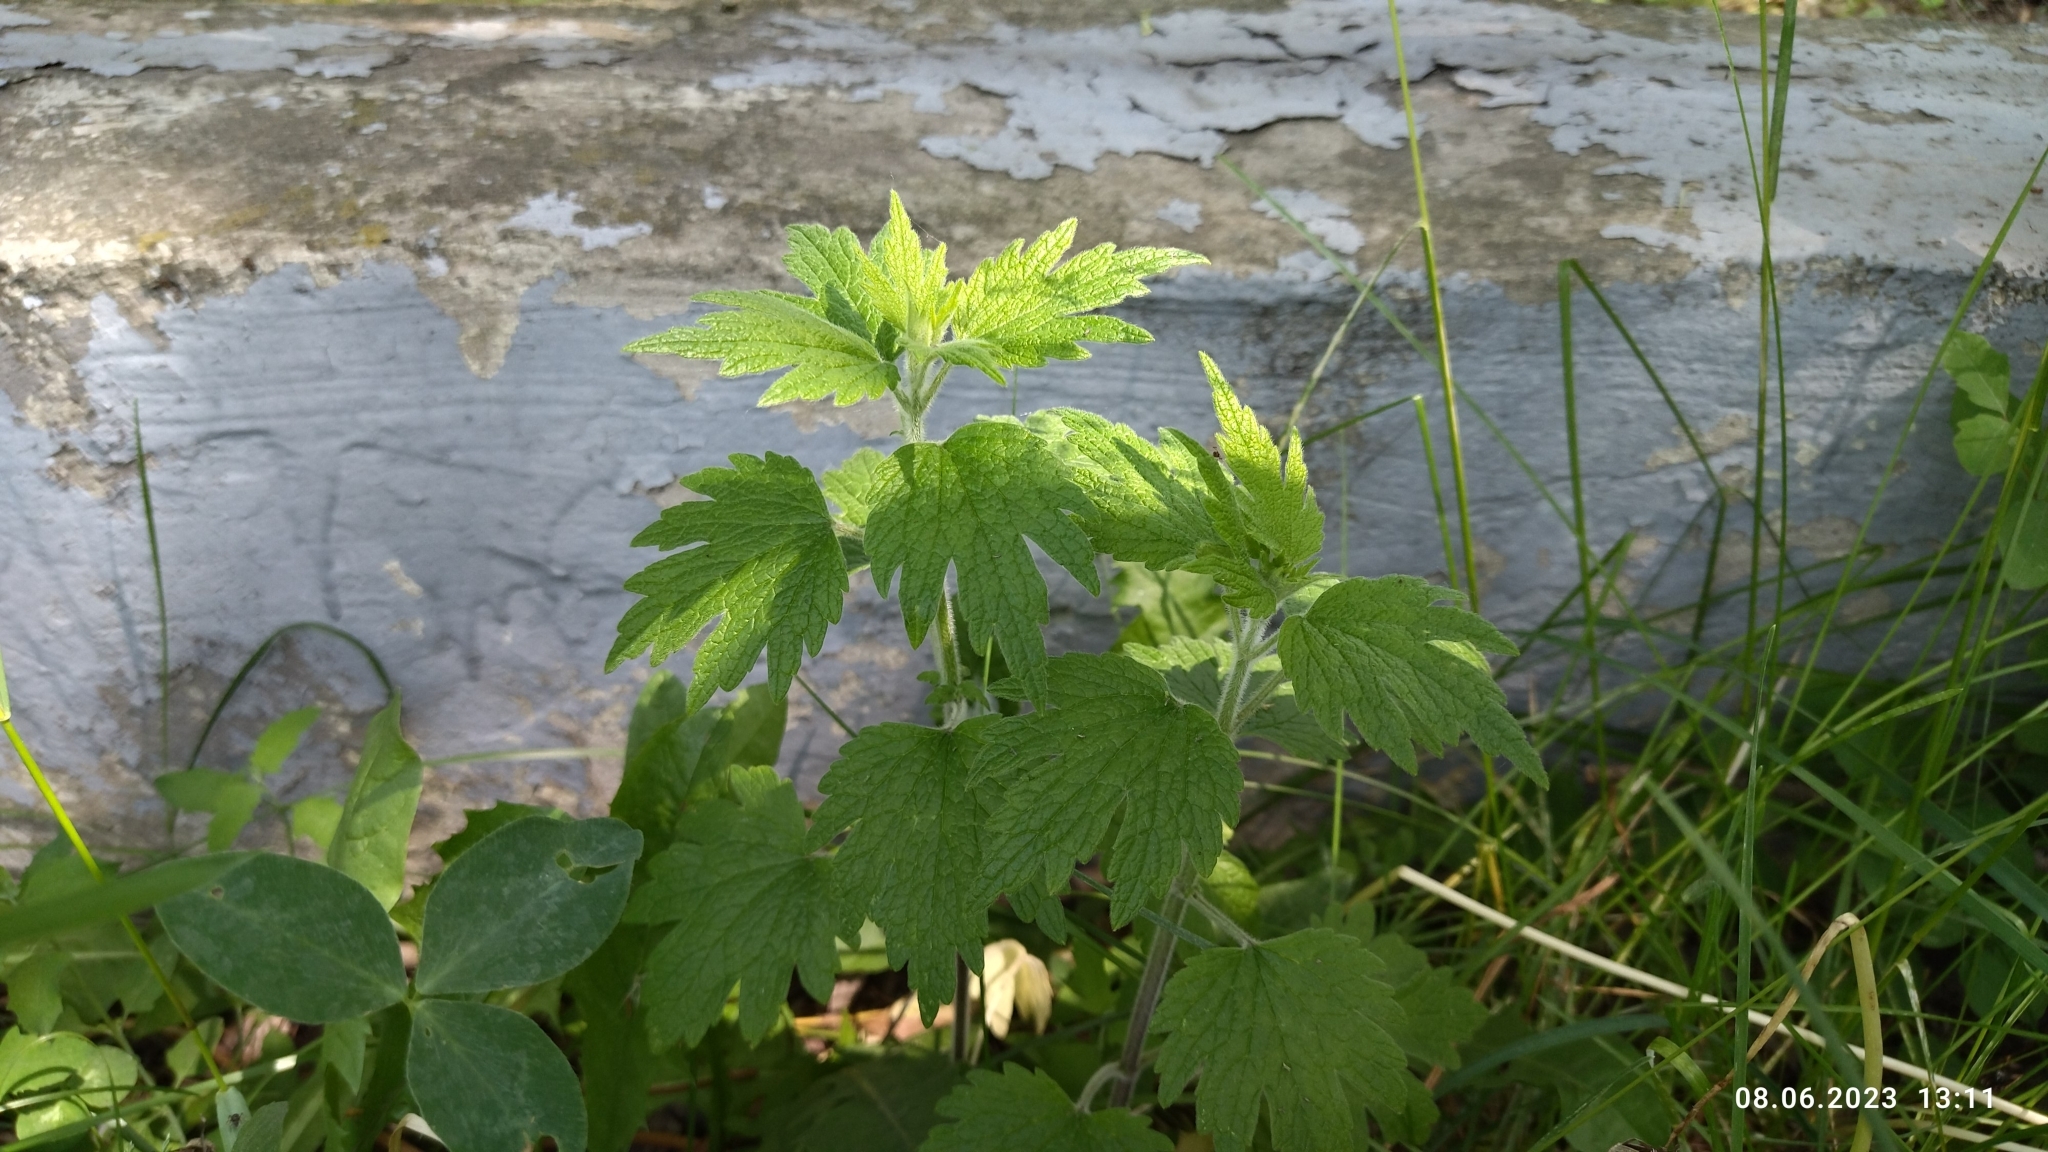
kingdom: Plantae
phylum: Tracheophyta
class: Magnoliopsida
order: Lamiales
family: Lamiaceae
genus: Leonurus
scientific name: Leonurus quinquelobatus
